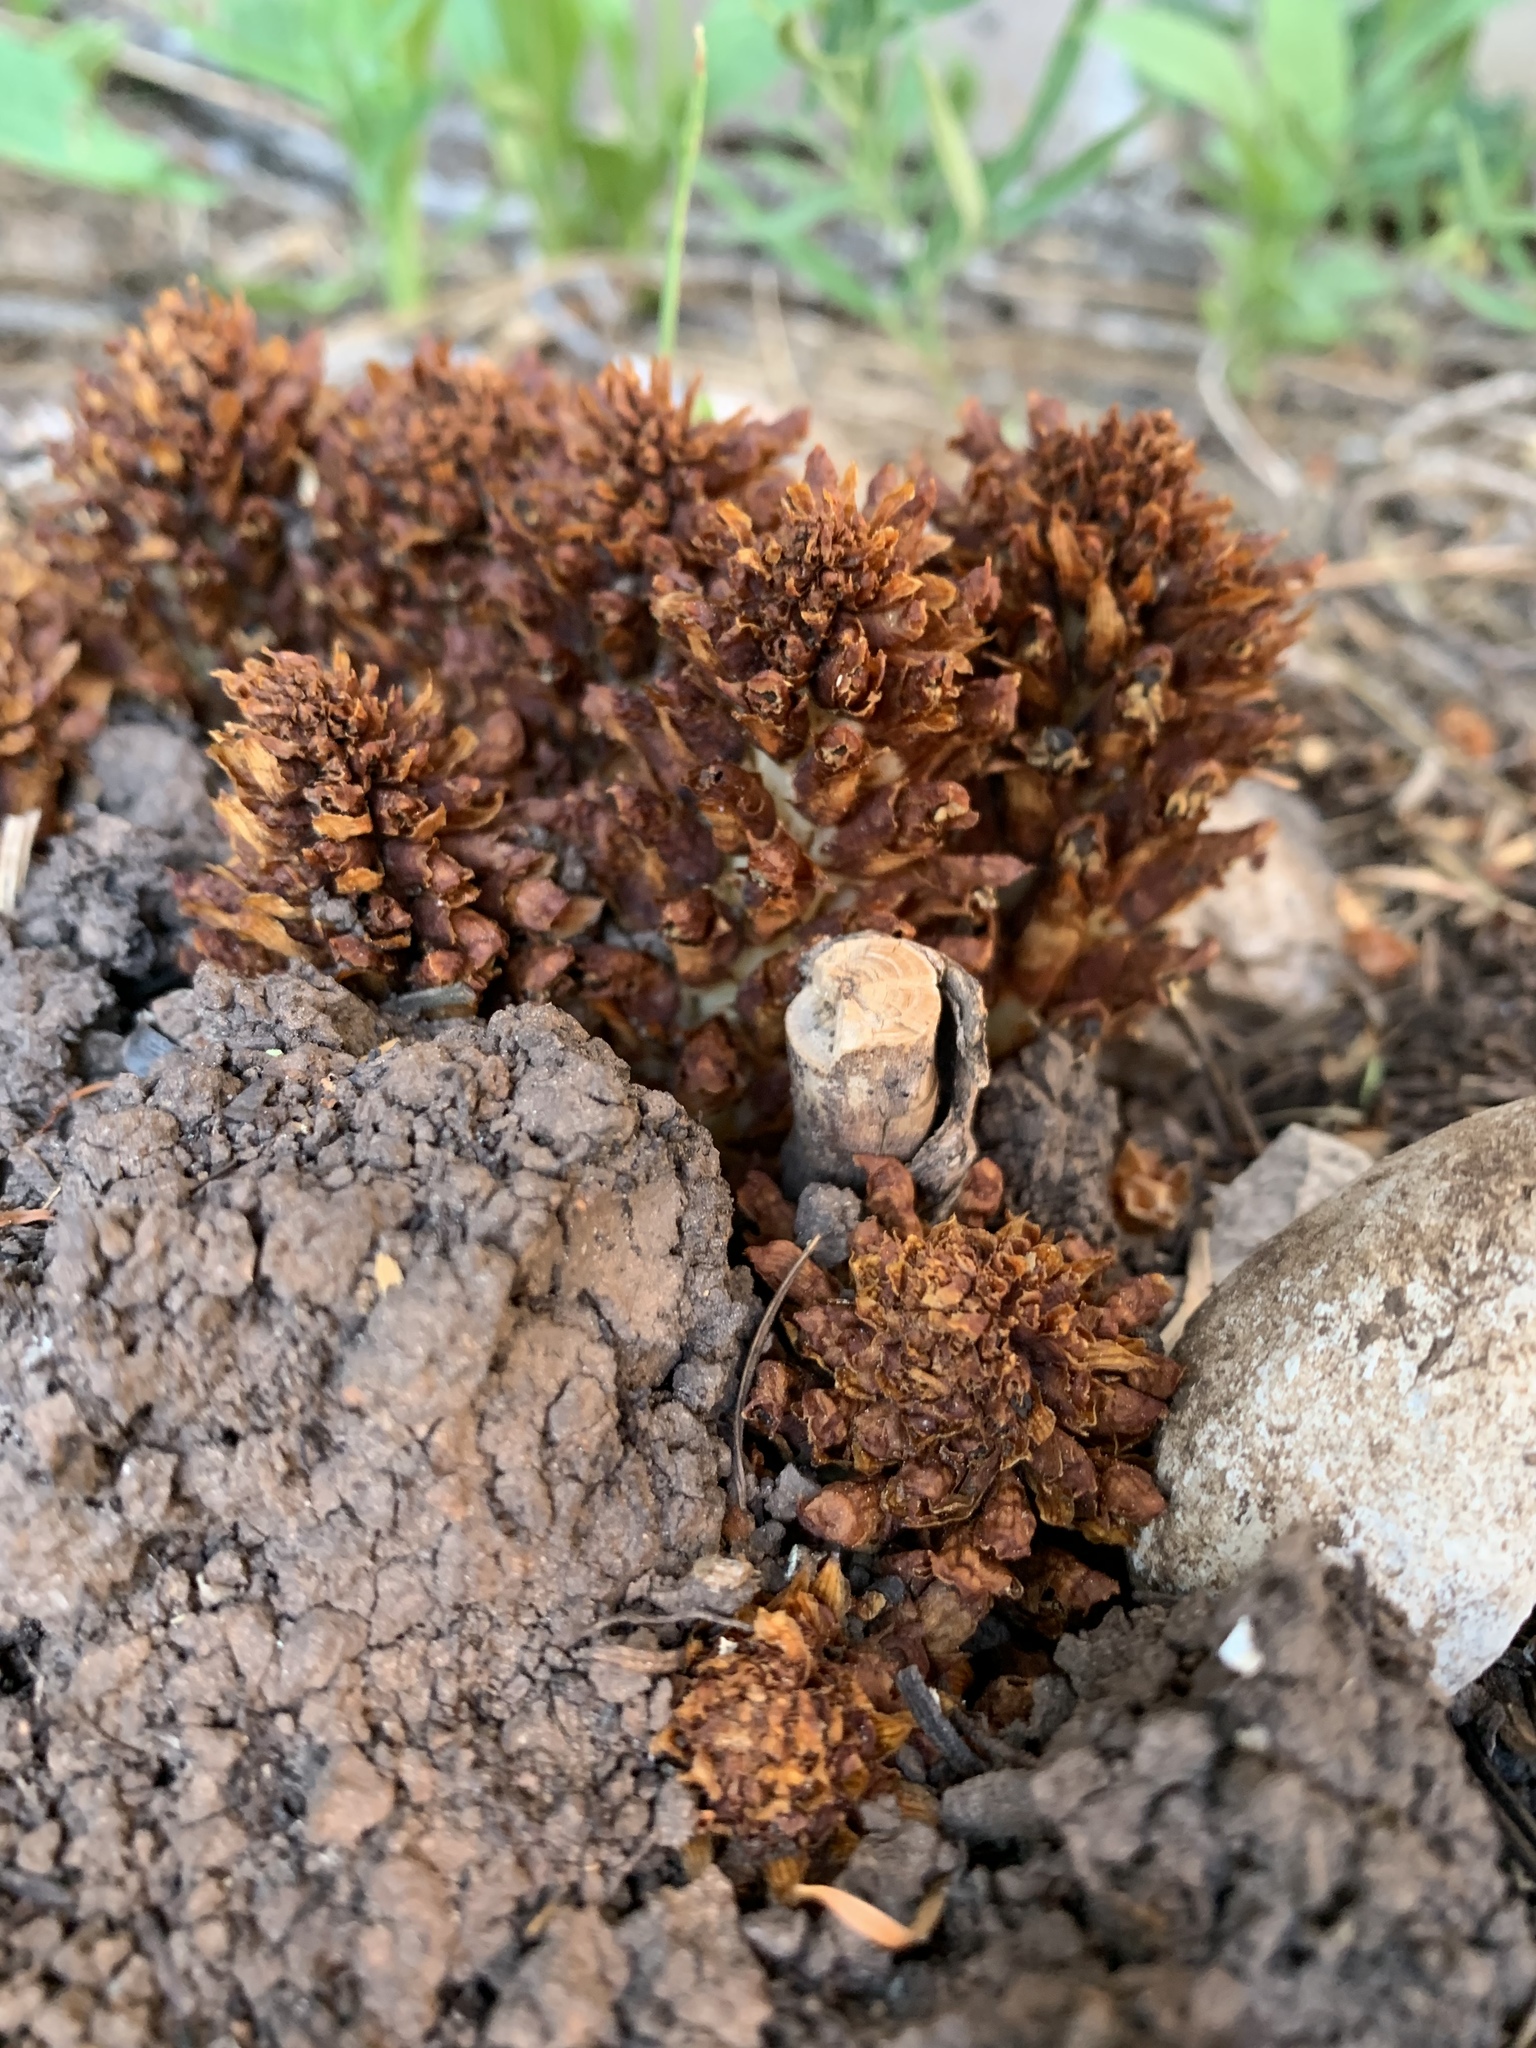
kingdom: Plantae
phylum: Tracheophyta
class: Magnoliopsida
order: Lamiales
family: Orobanchaceae
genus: Conopholis
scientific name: Conopholis alpina
